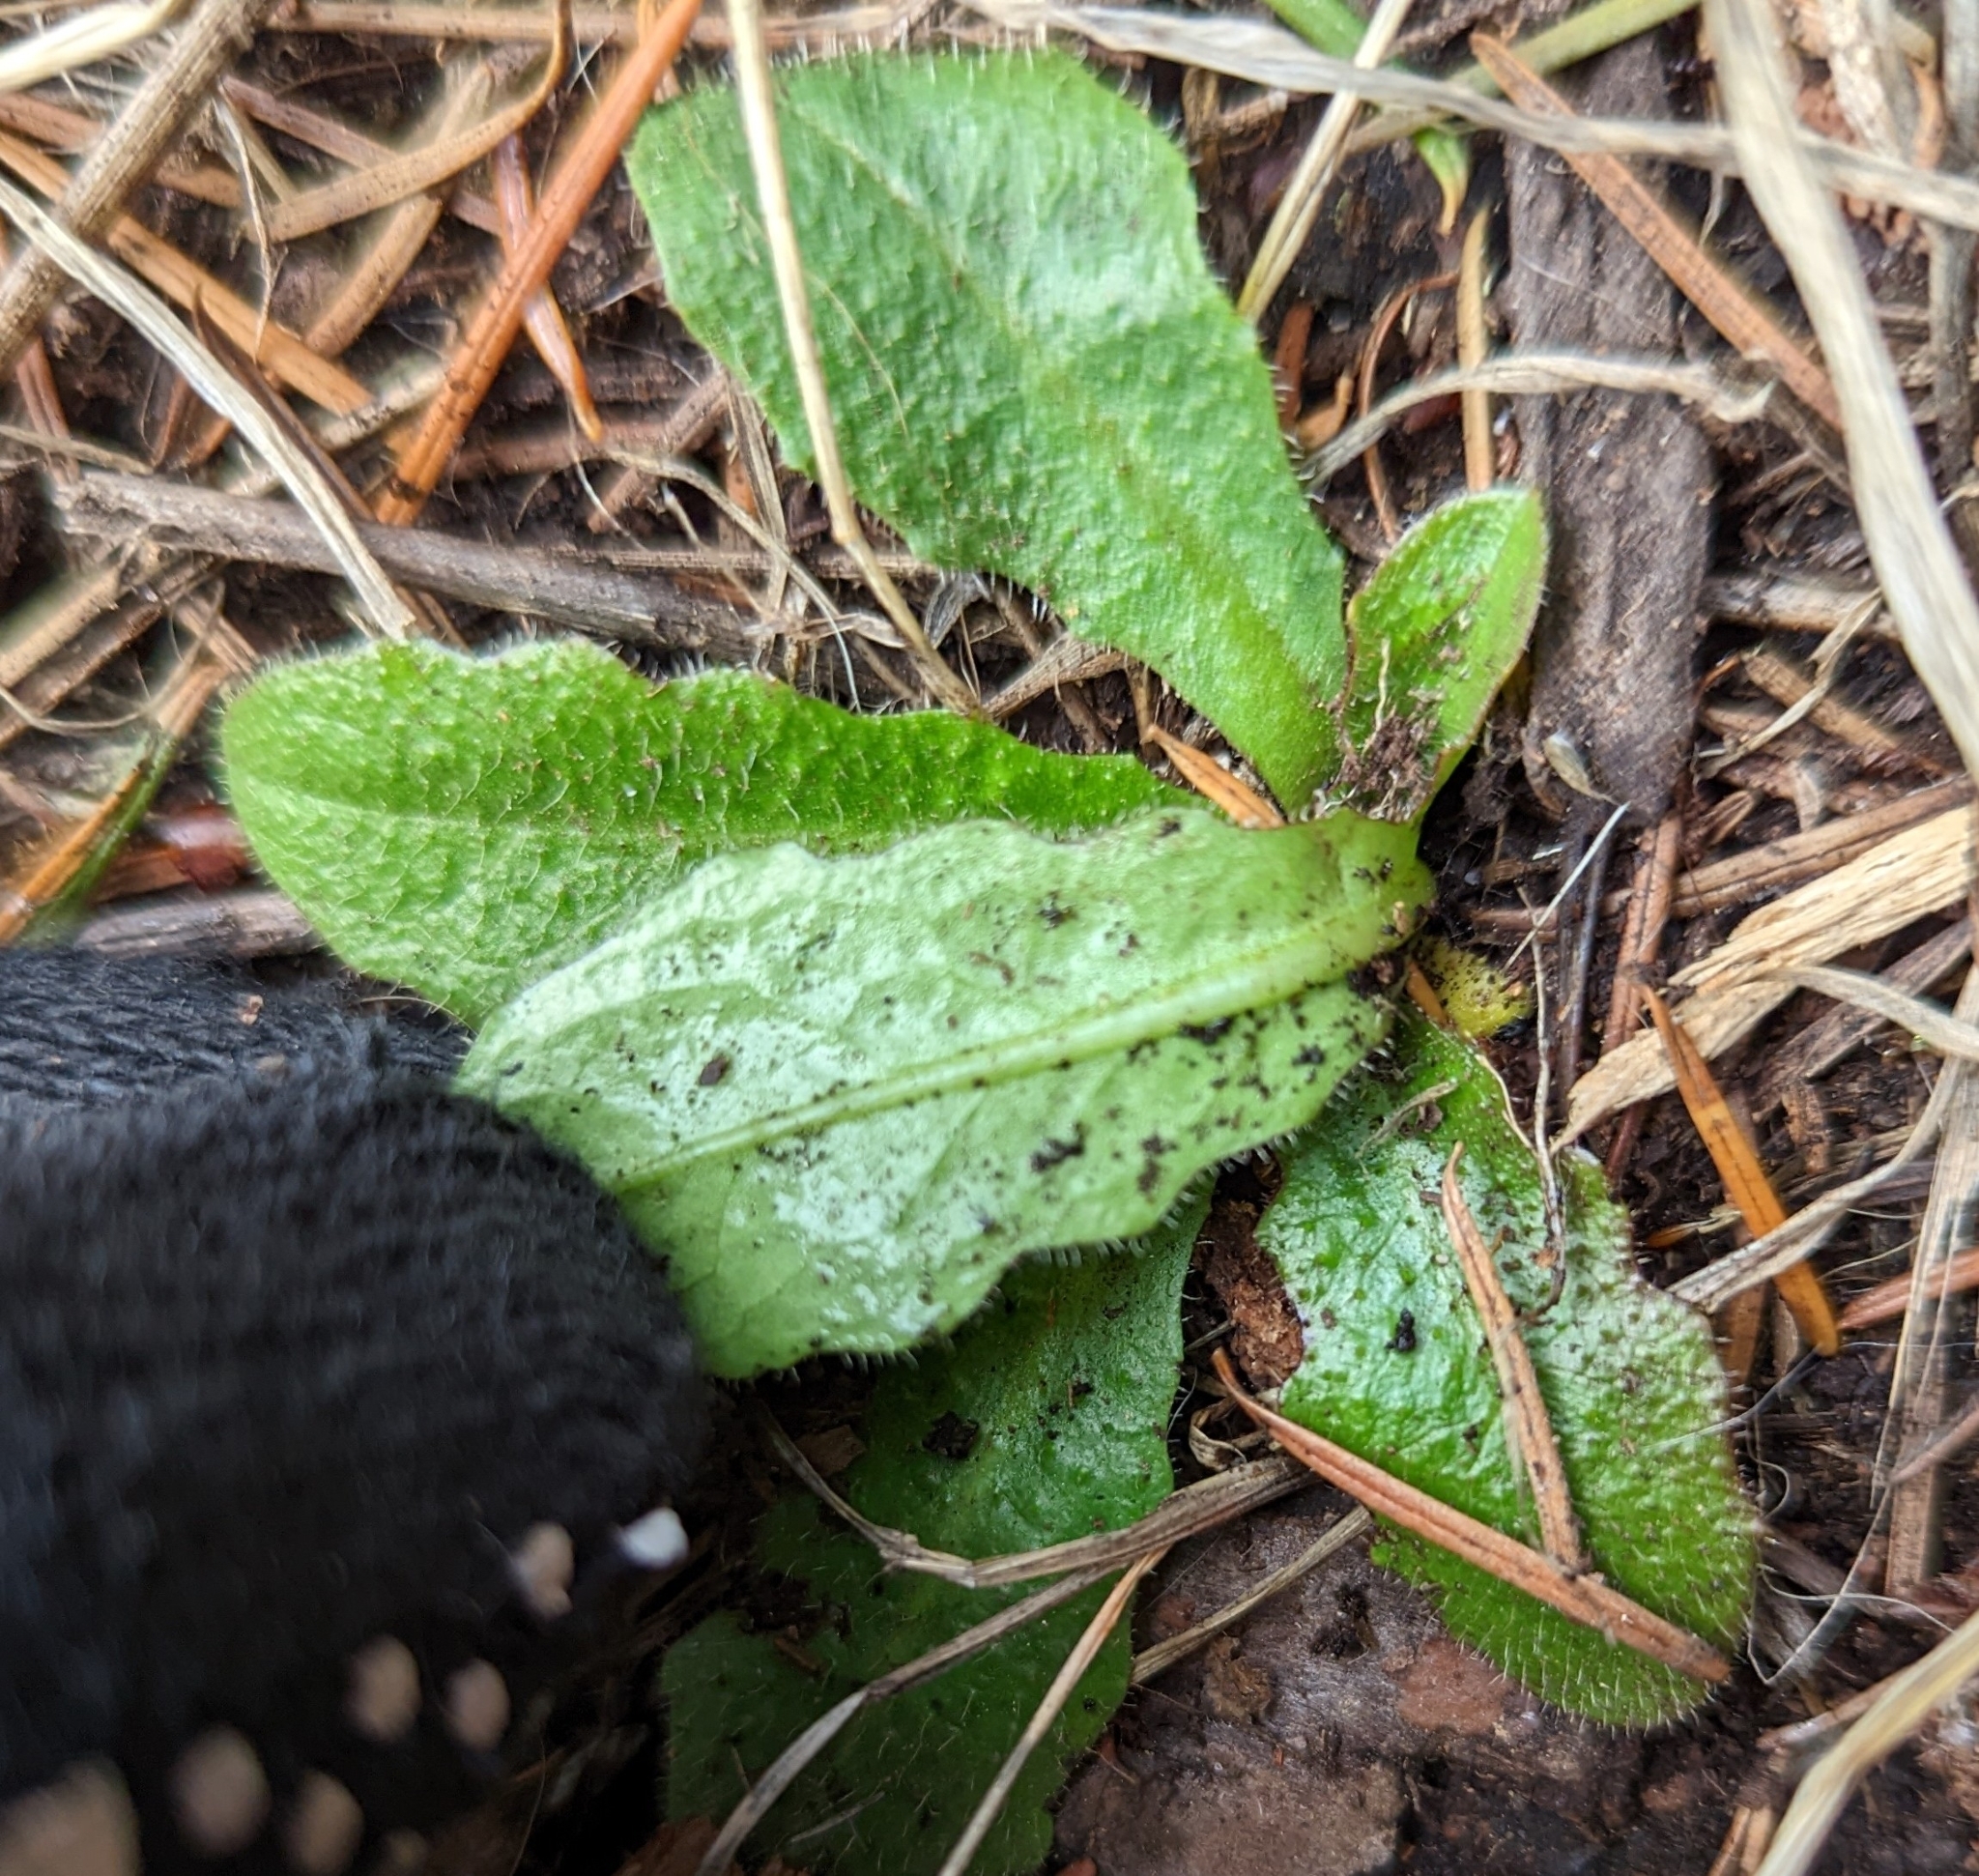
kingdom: Plantae
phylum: Tracheophyta
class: Magnoliopsida
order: Asterales
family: Asteraceae
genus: Hypochaeris
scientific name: Hypochaeris radicata
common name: Flatweed
